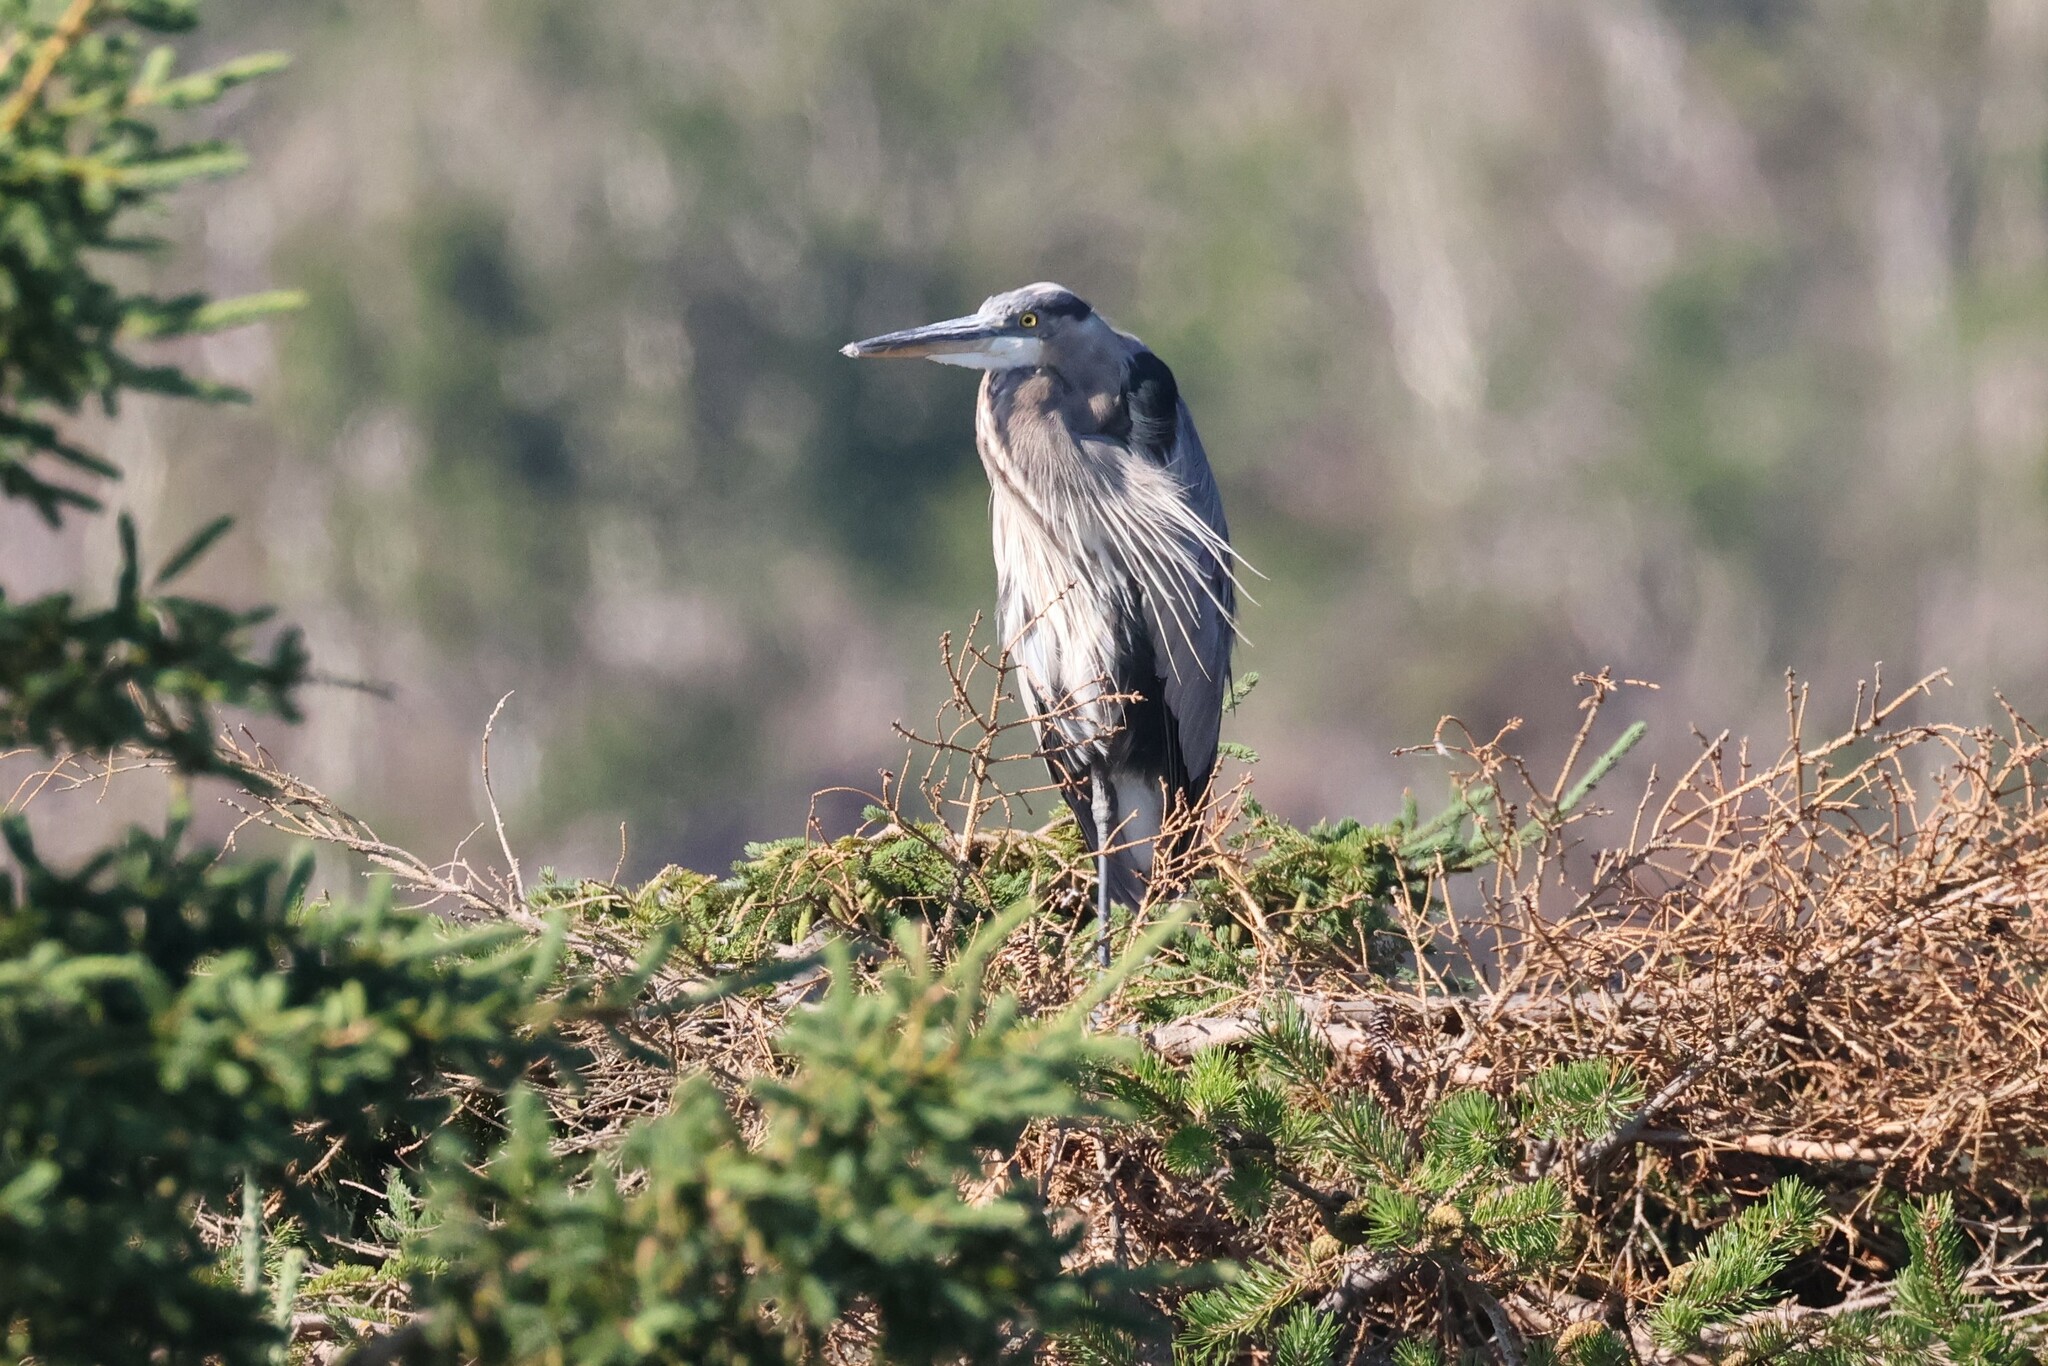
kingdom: Animalia
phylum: Chordata
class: Aves
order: Pelecaniformes
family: Ardeidae
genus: Ardea
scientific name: Ardea herodias
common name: Great blue heron
